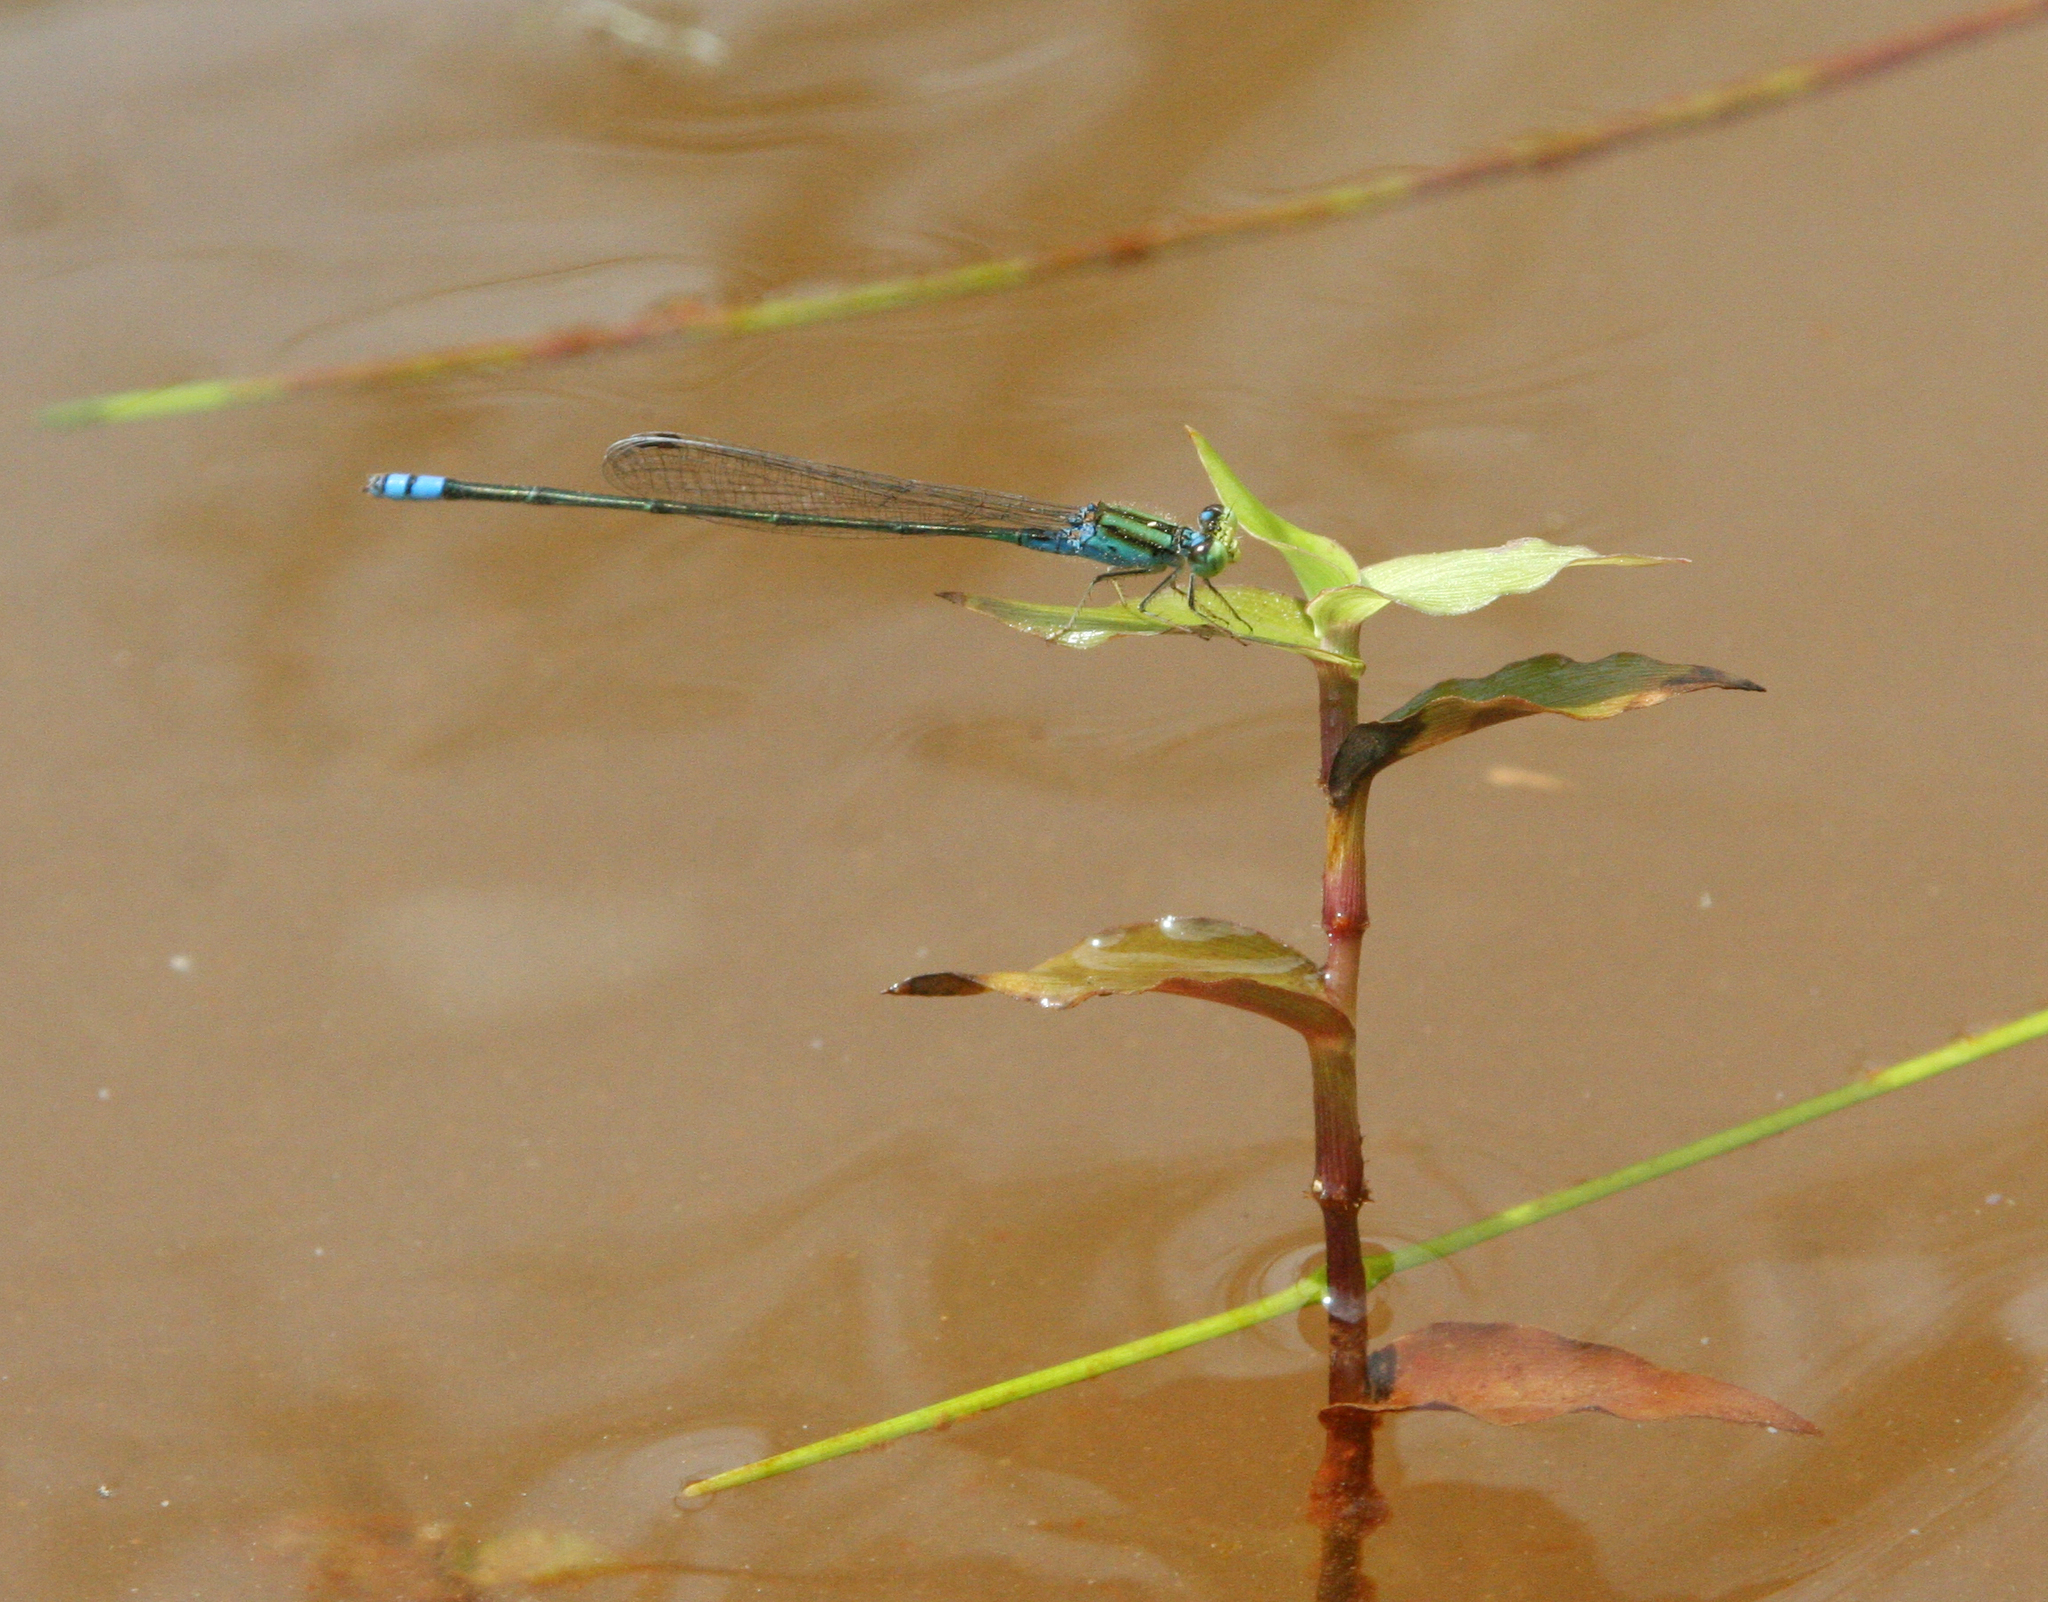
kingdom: Animalia
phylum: Arthropoda
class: Insecta
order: Odonata
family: Coenagrionidae
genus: Pseudagrion
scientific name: Pseudagrion williamsoni
